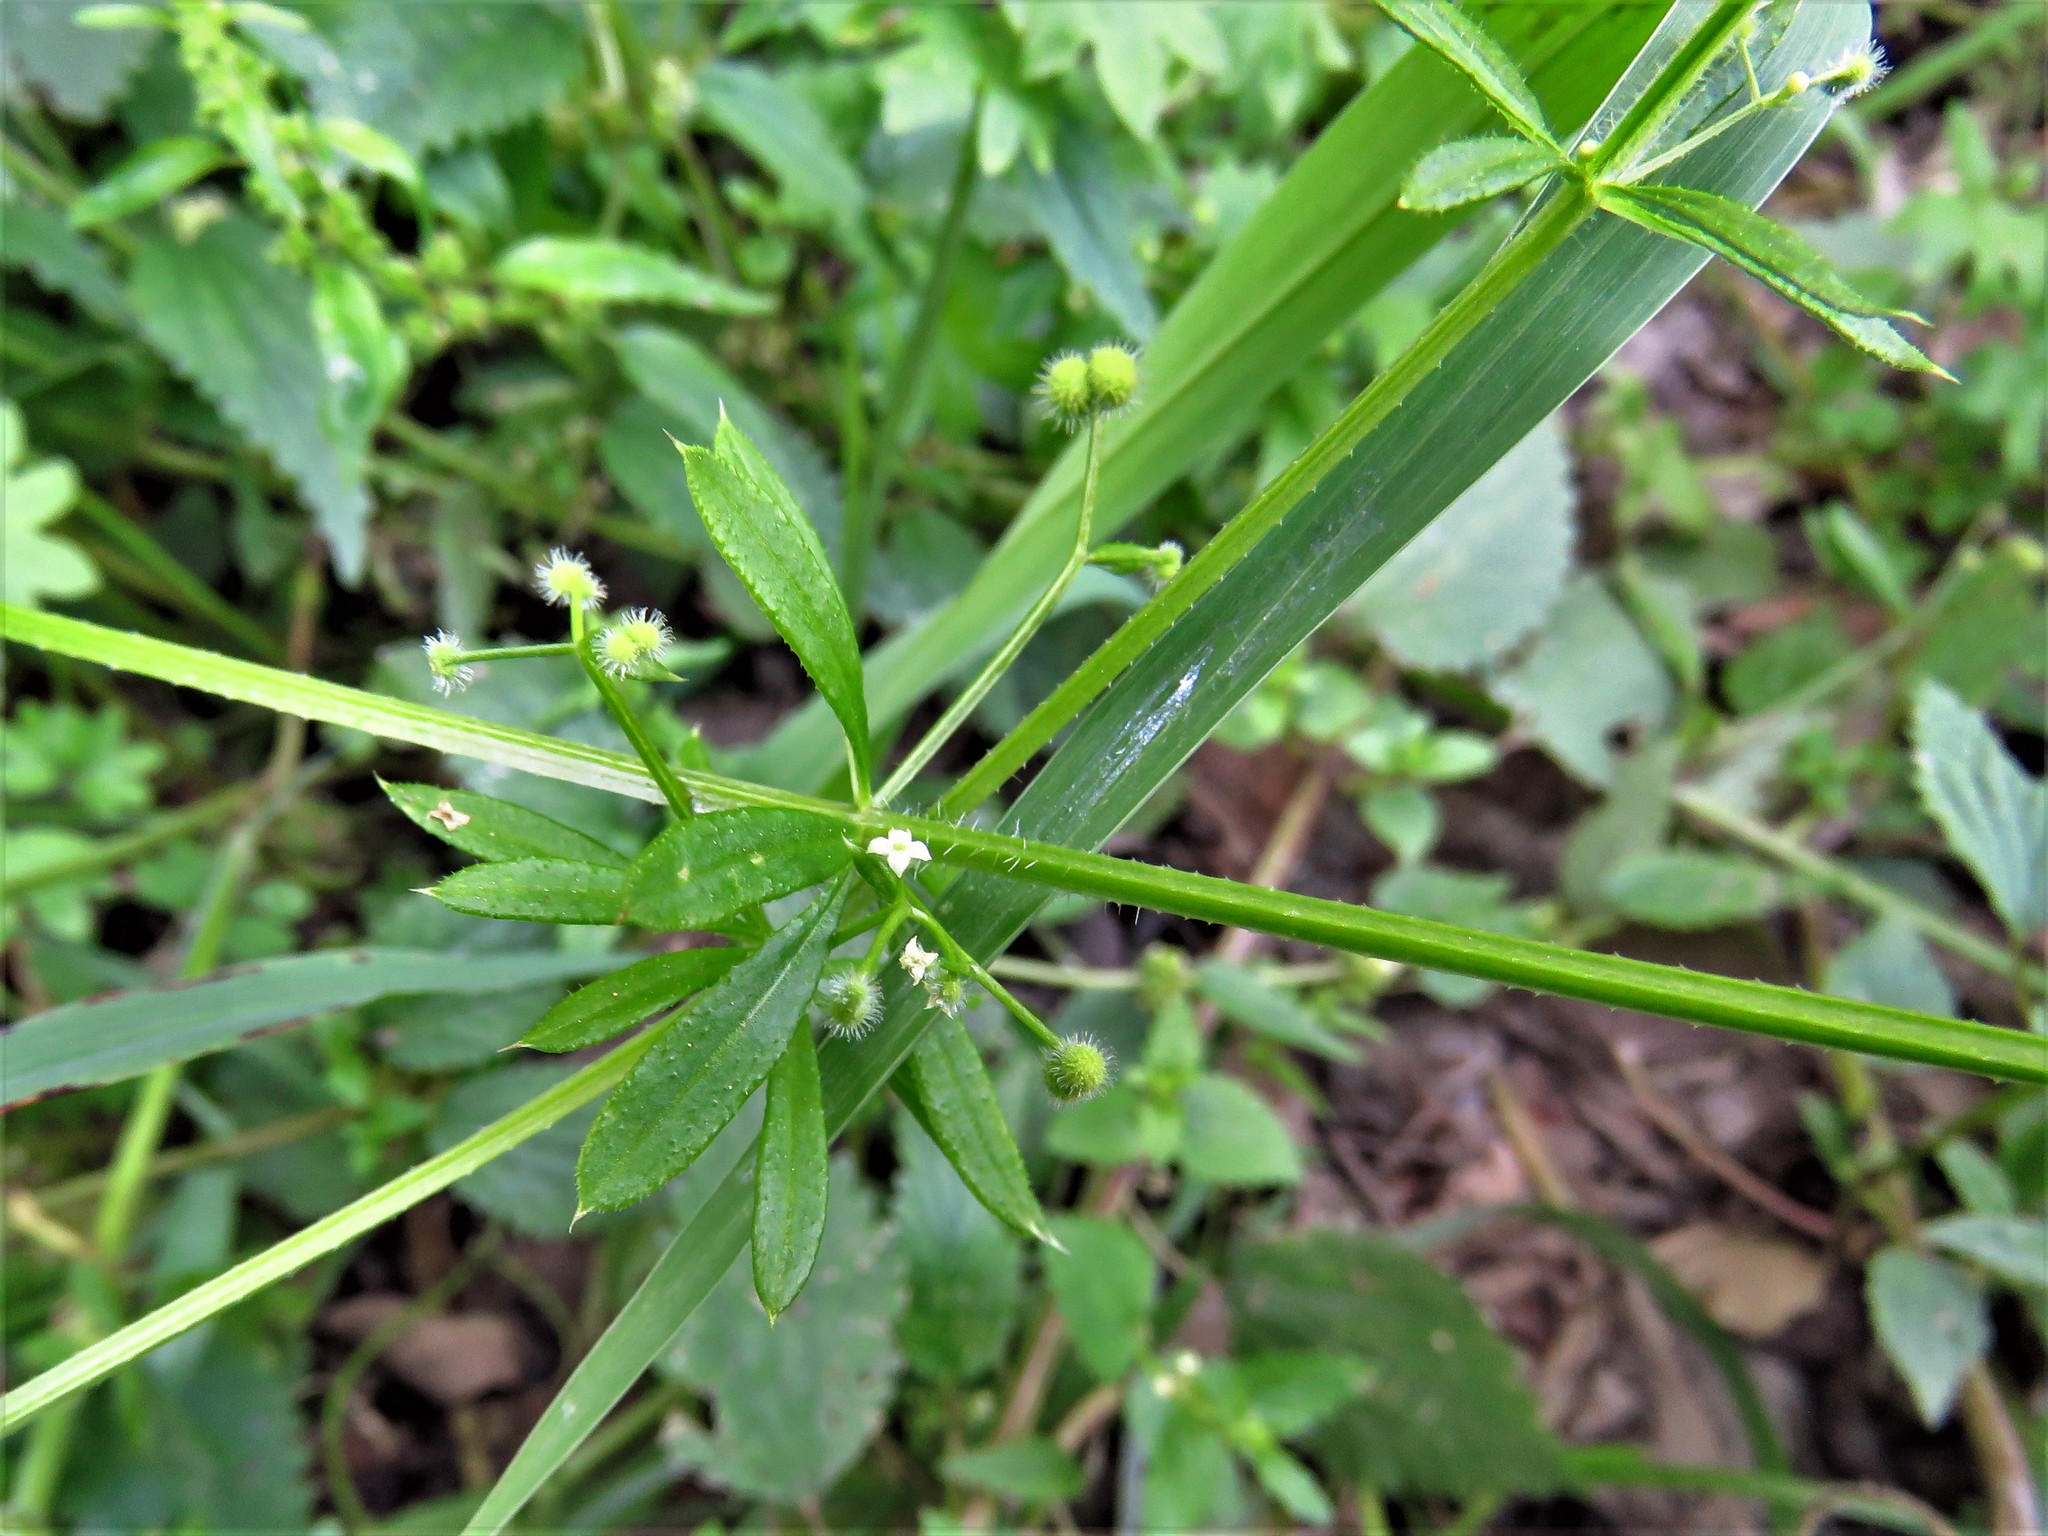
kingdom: Plantae
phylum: Tracheophyta
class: Magnoliopsida
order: Gentianales
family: Rubiaceae
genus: Galium
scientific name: Galium aparine
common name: Cleavers
